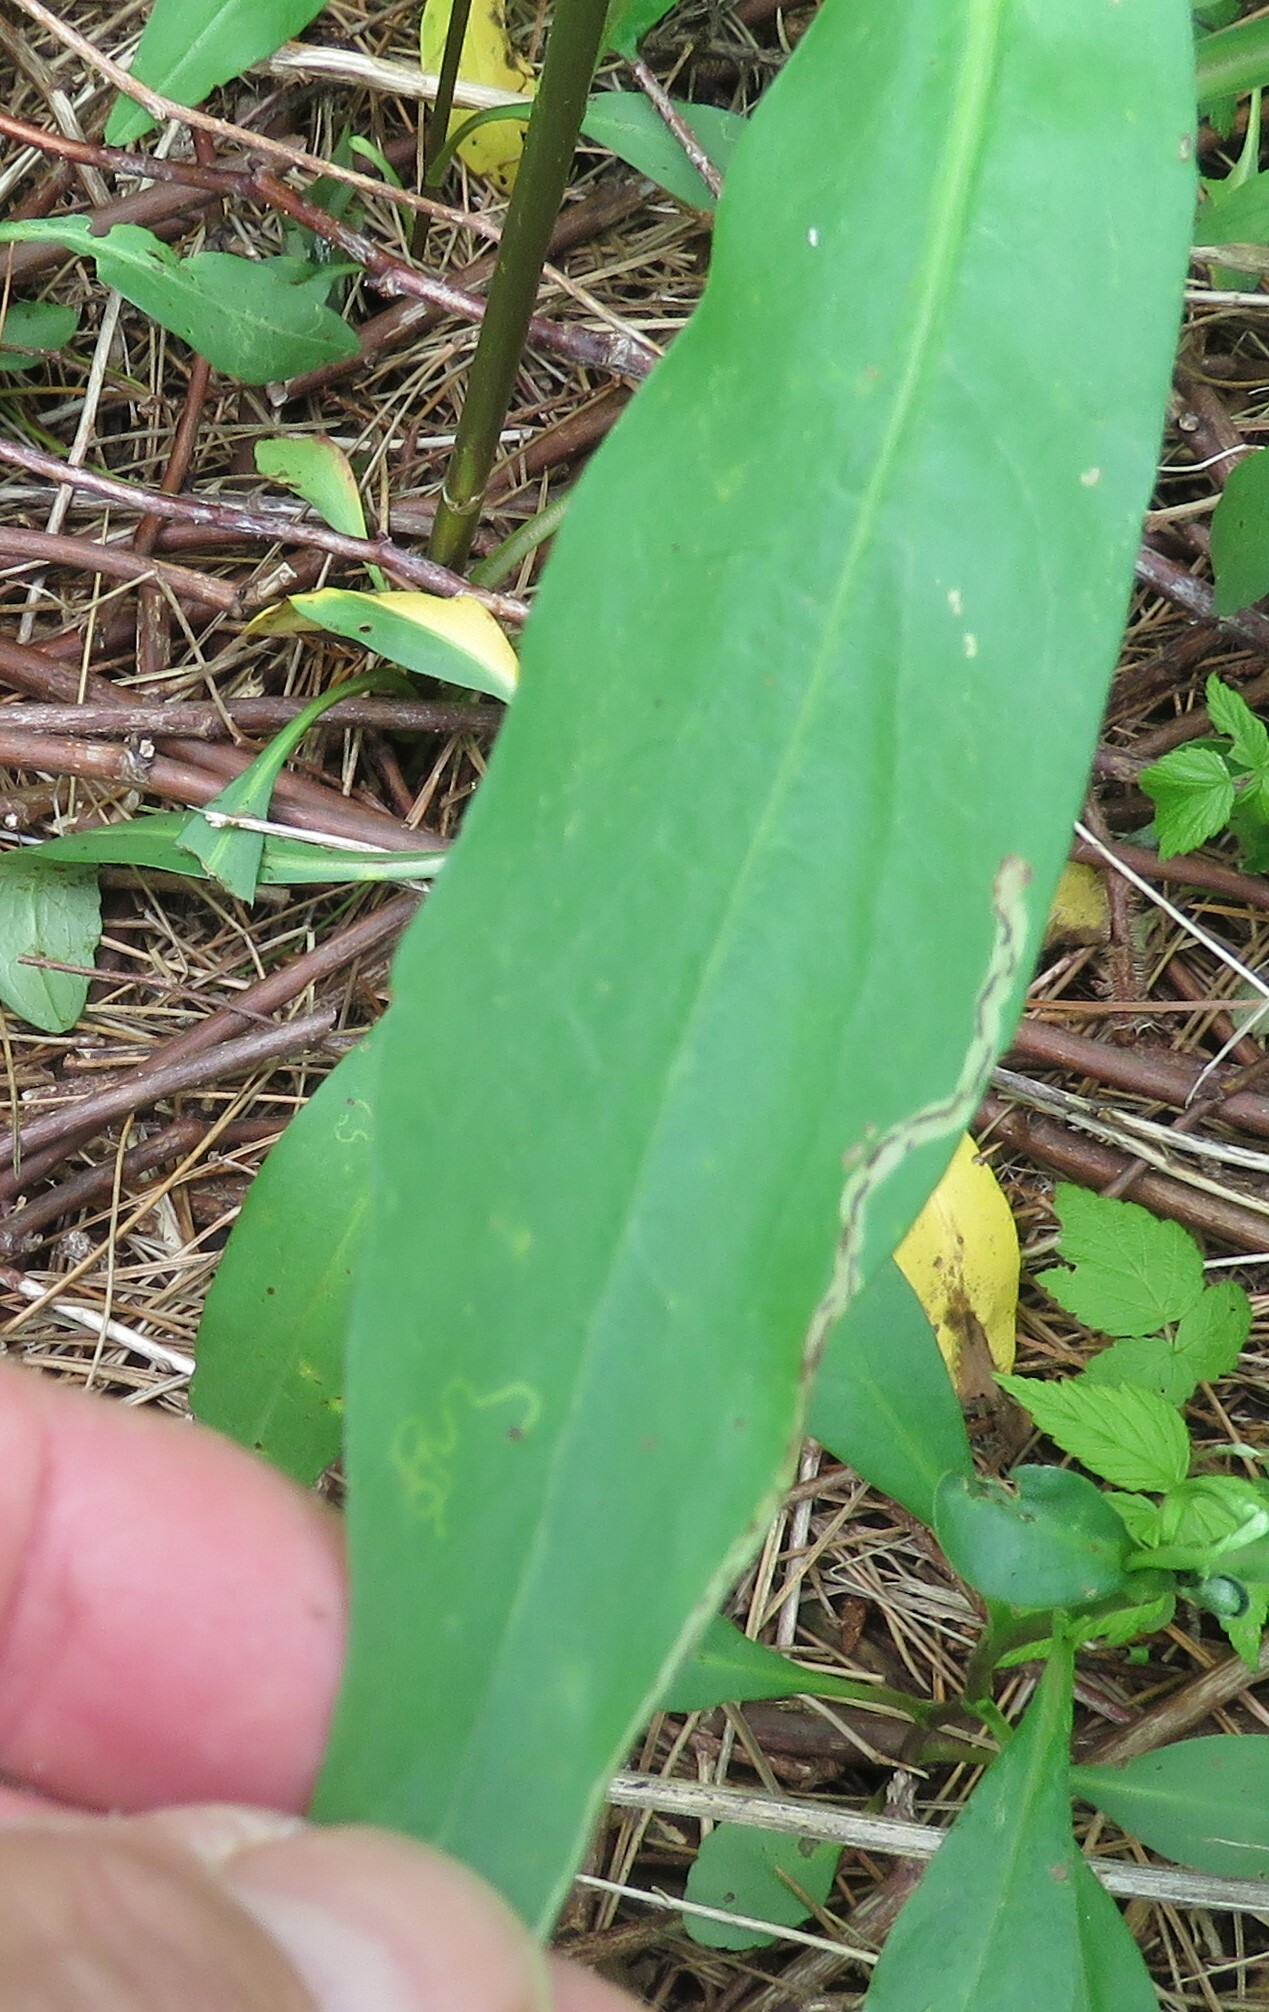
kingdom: Animalia
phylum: Arthropoda
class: Insecta
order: Diptera
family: Agromyzidae
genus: Liriomyza
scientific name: Liriomyza eupatorii
